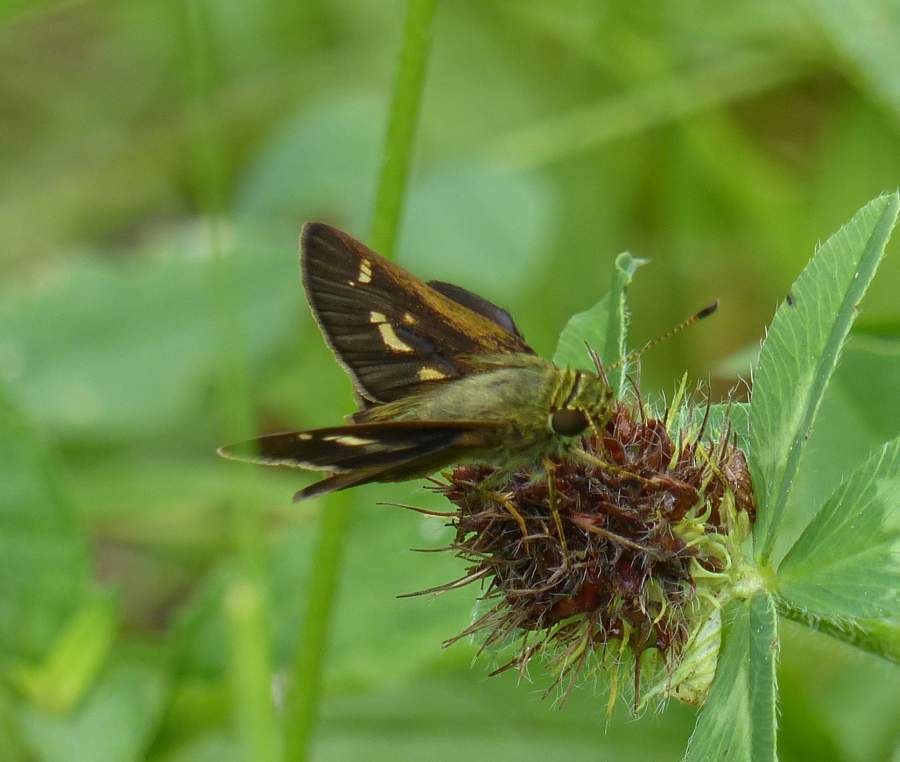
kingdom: Animalia
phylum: Arthropoda
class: Insecta
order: Lepidoptera
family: Hesperiidae
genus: Vernia
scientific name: Vernia verna
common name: Little glassywing
